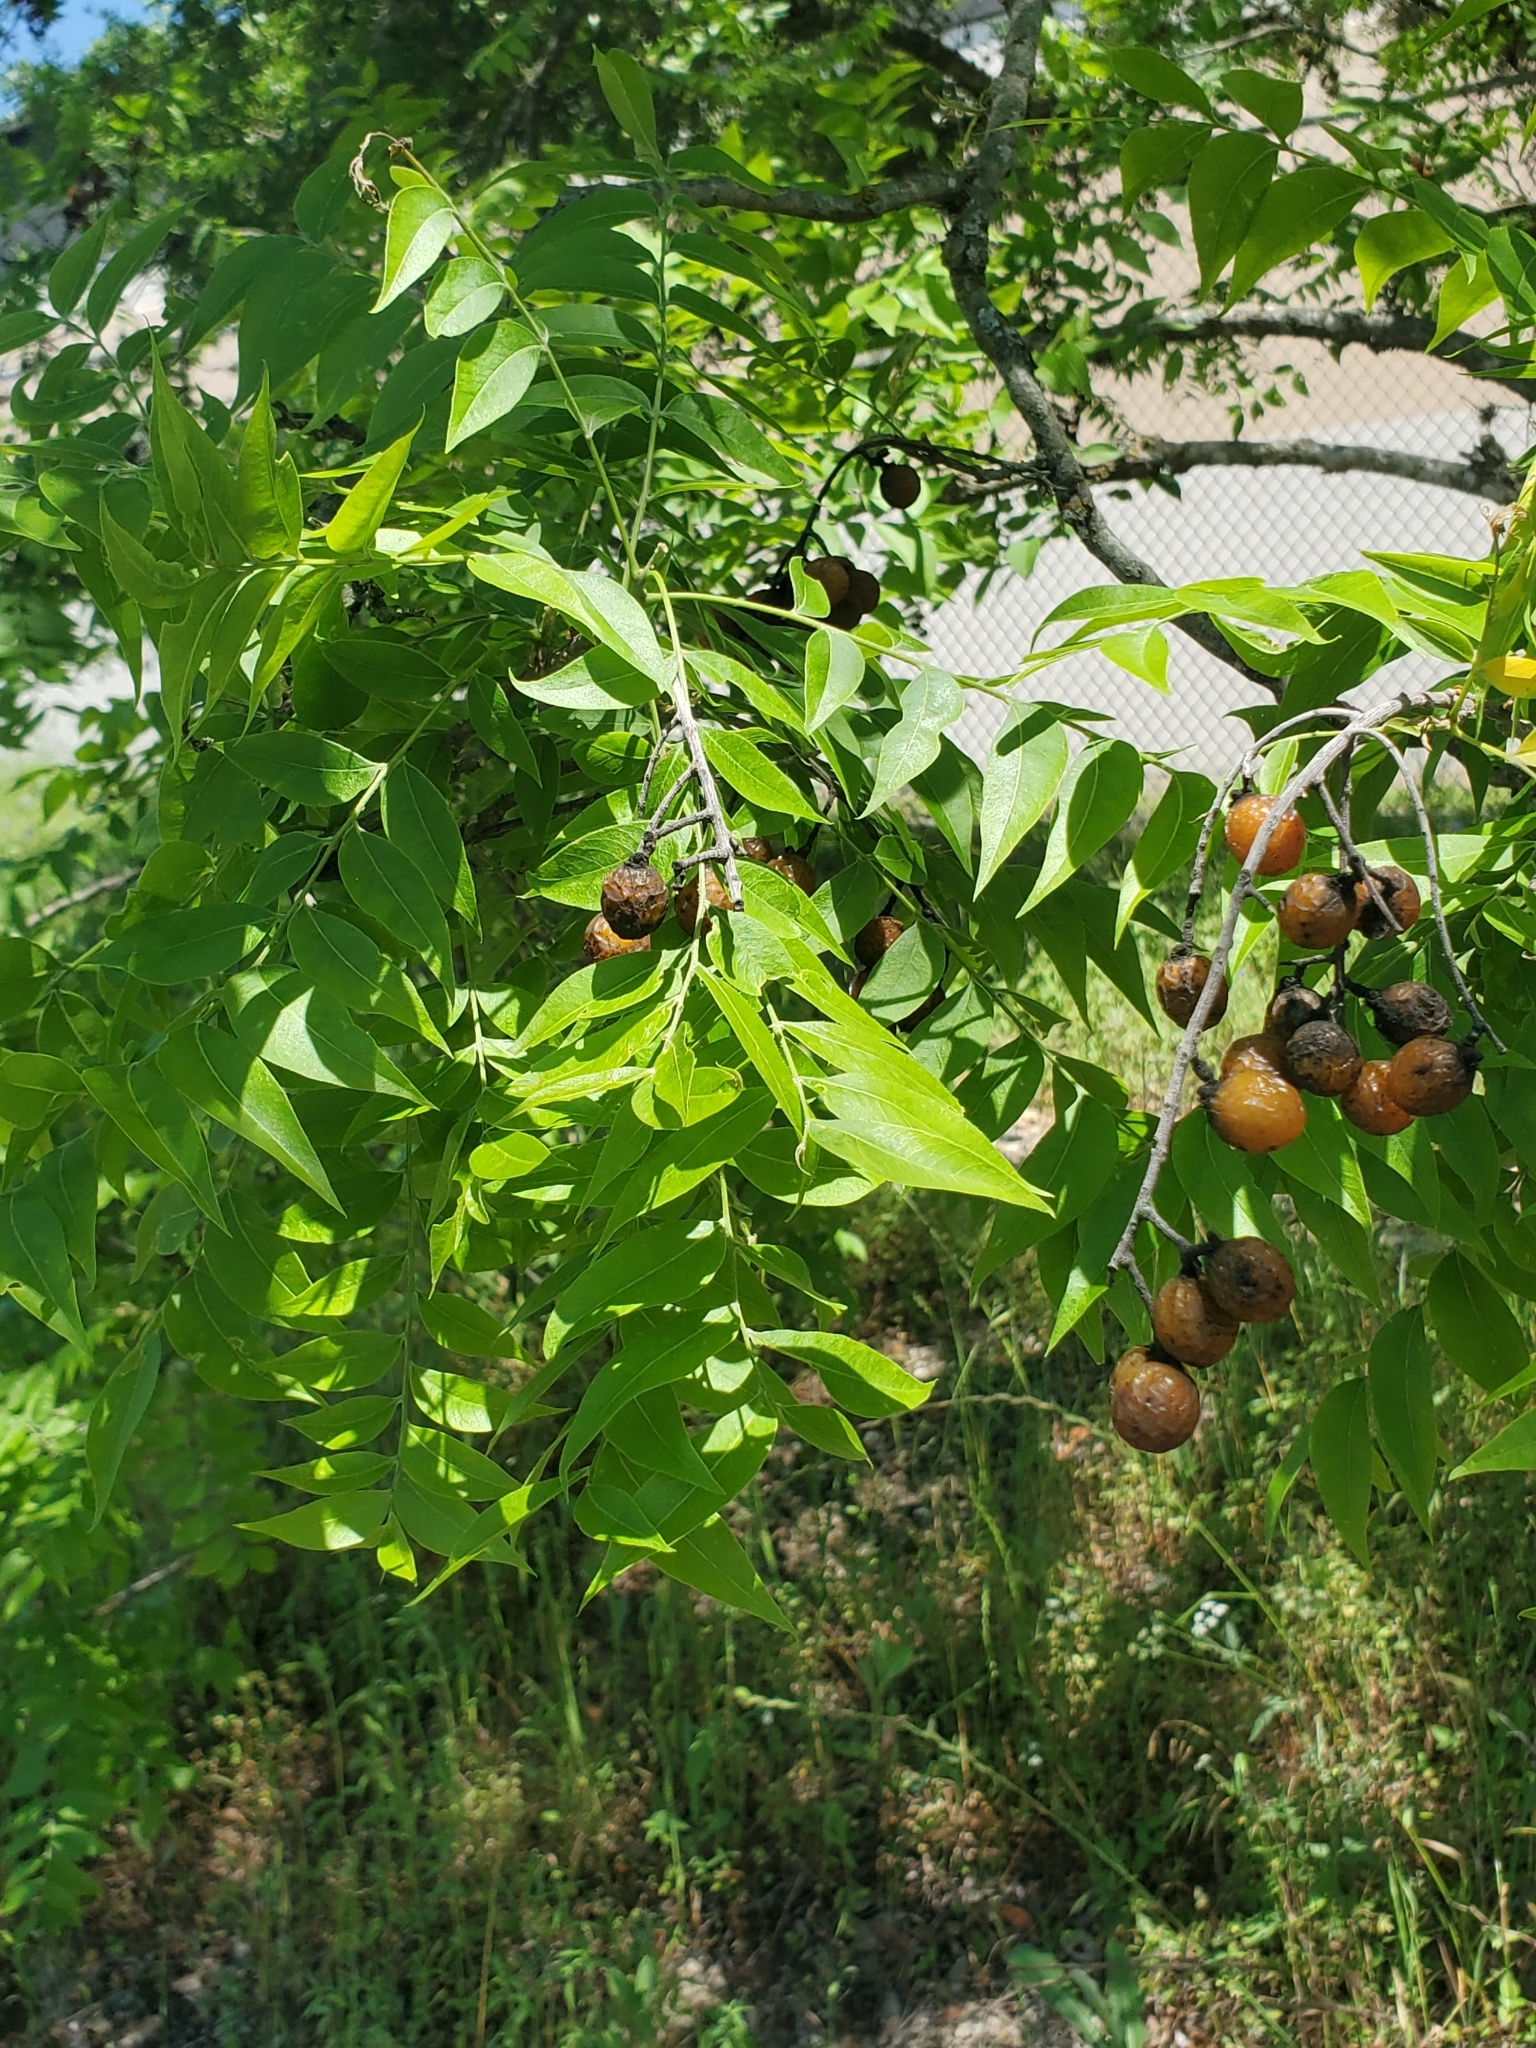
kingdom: Plantae
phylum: Tracheophyta
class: Magnoliopsida
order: Sapindales
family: Sapindaceae
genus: Sapindus
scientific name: Sapindus drummondii
